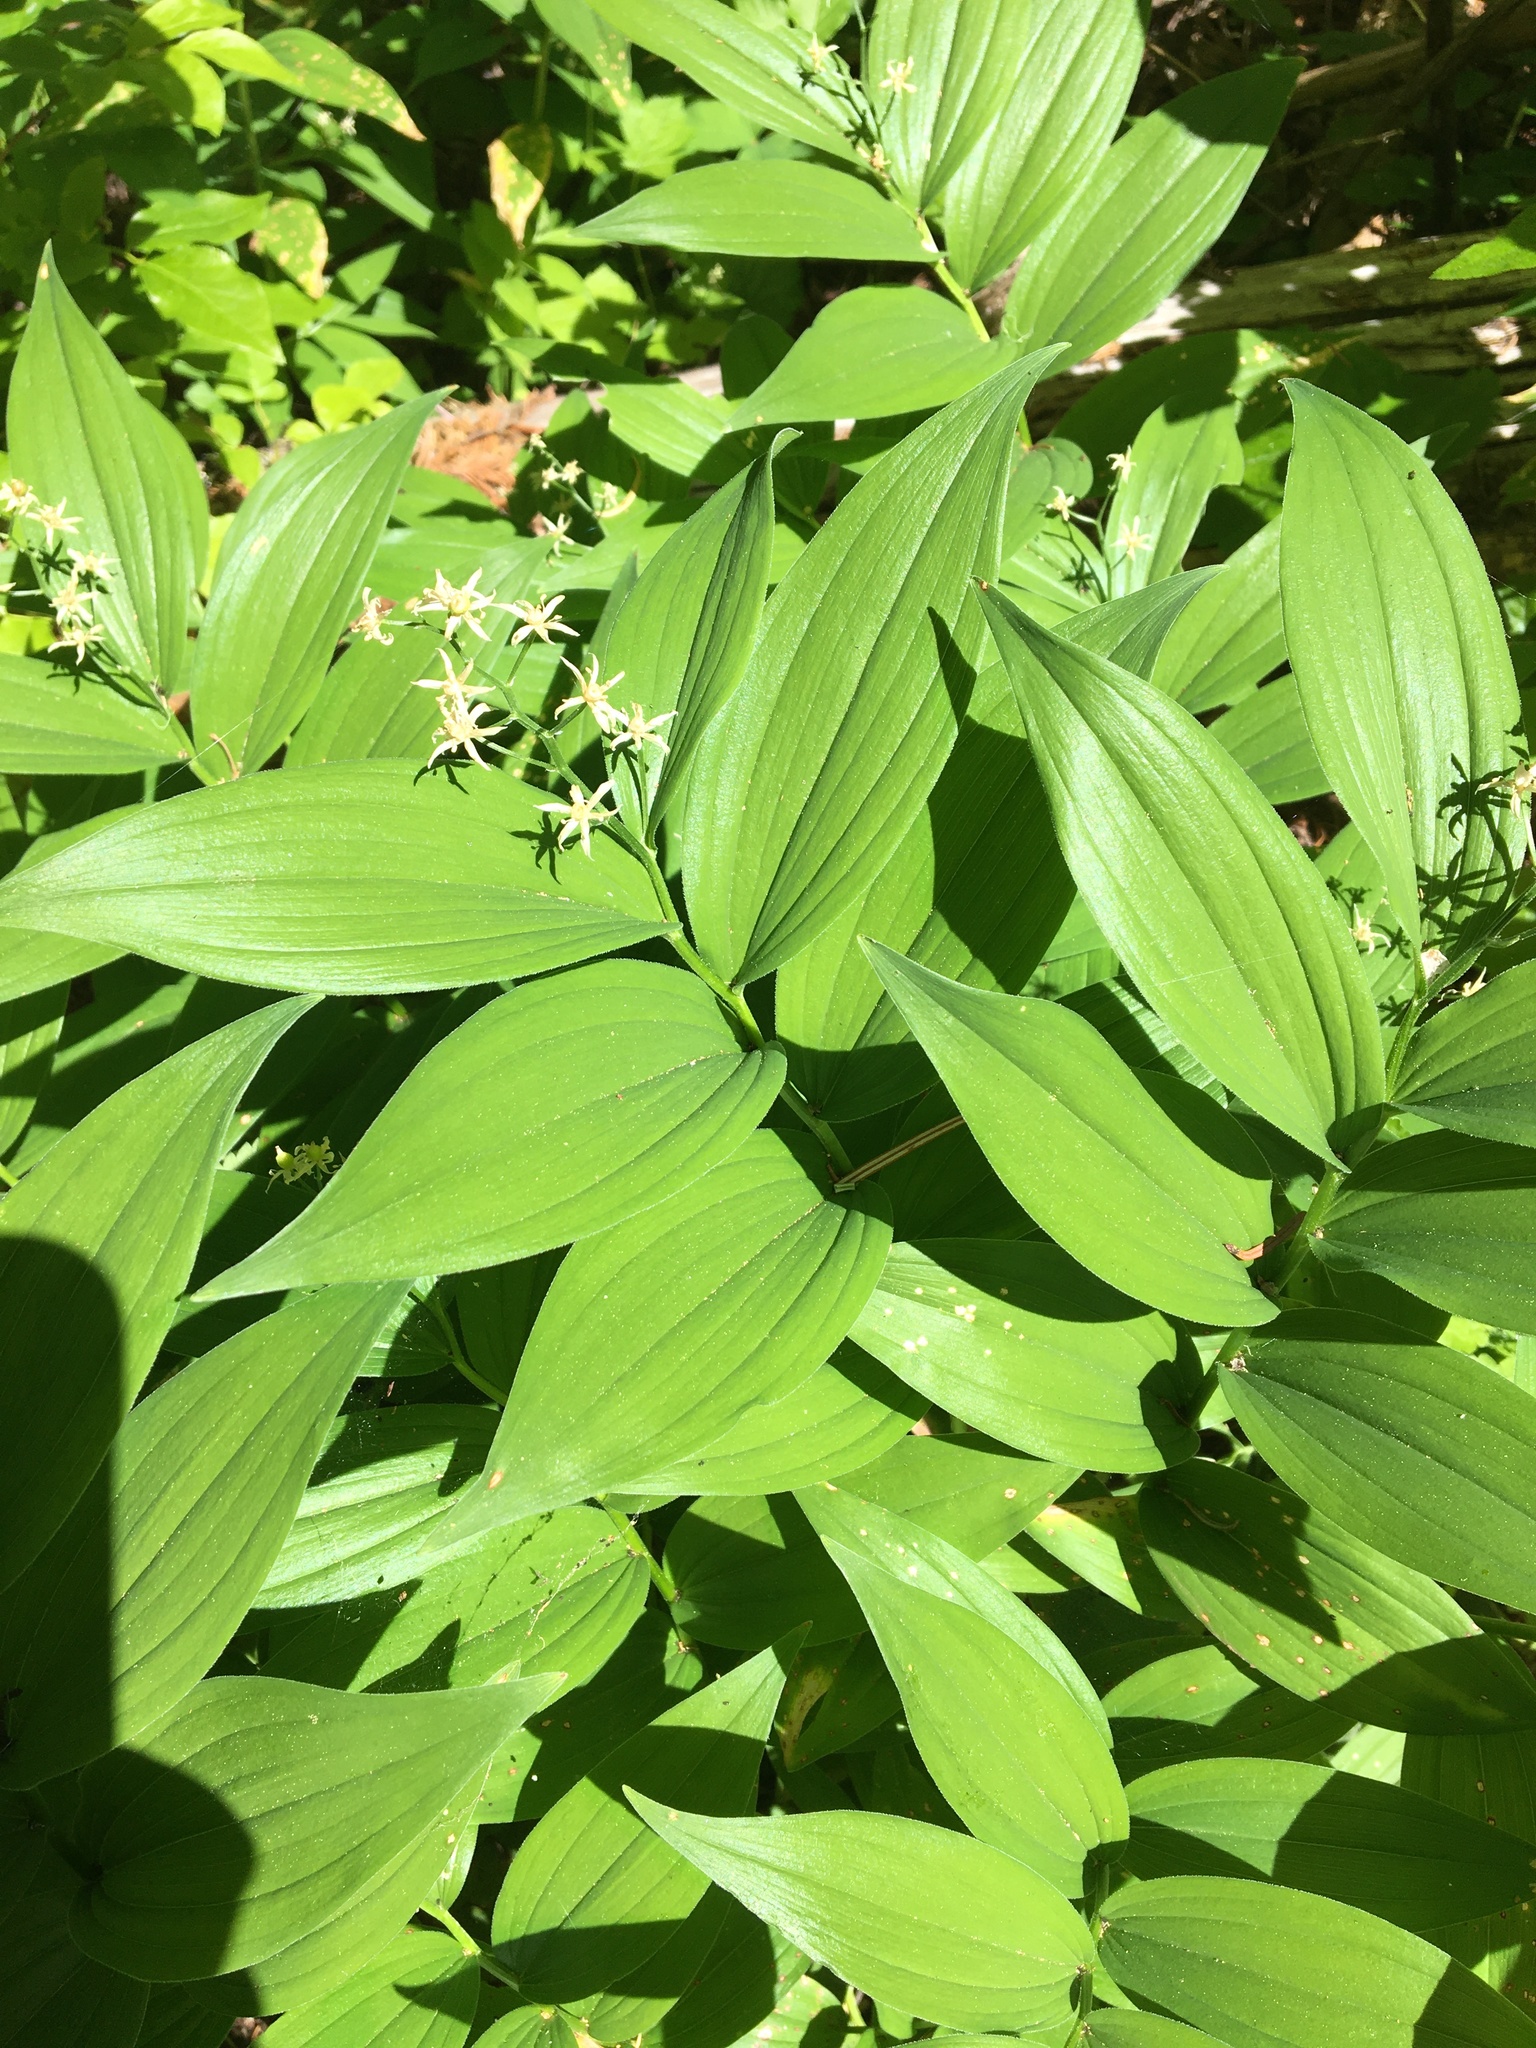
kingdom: Plantae
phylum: Tracheophyta
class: Liliopsida
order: Asparagales
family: Asparagaceae
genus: Maianthemum
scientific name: Maianthemum stellatum
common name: Little false solomon's seal
